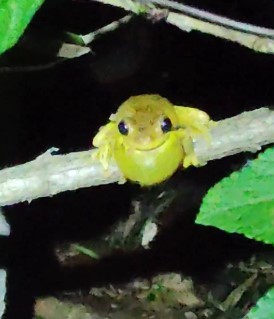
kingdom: Animalia
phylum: Chordata
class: Amphibia
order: Anura
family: Pelodryadidae
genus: Litoria
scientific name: Litoria tyleri
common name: Laughing tree frog
